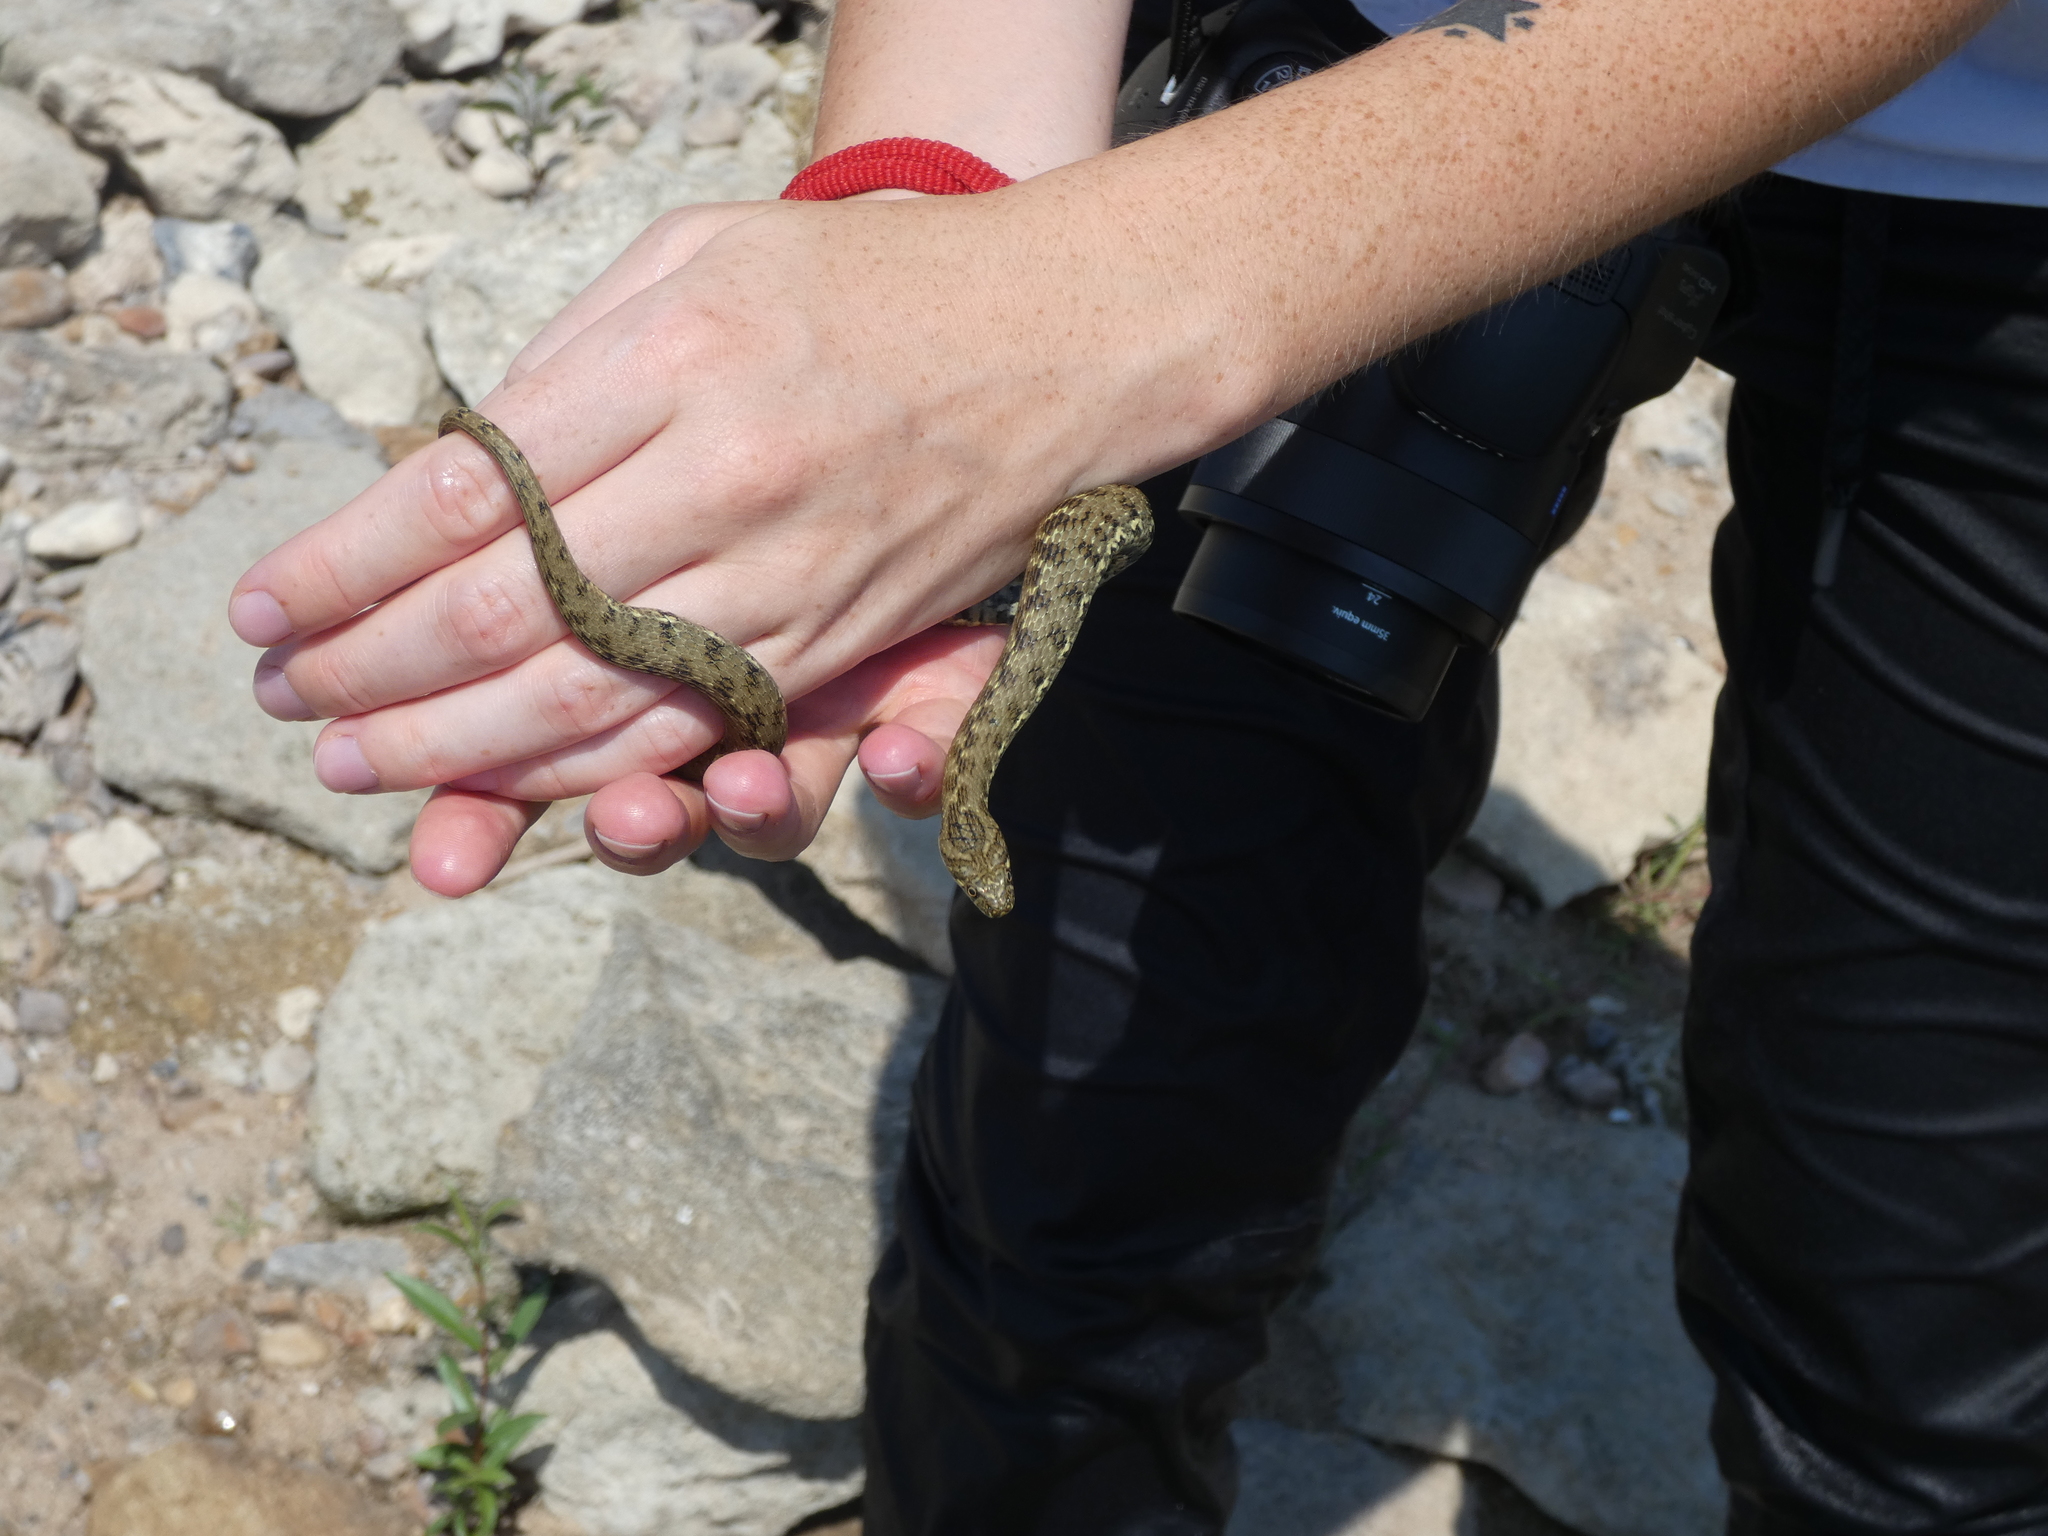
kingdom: Animalia
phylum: Chordata
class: Squamata
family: Colubridae
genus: Natrix
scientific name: Natrix maura
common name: Viperine water snake
